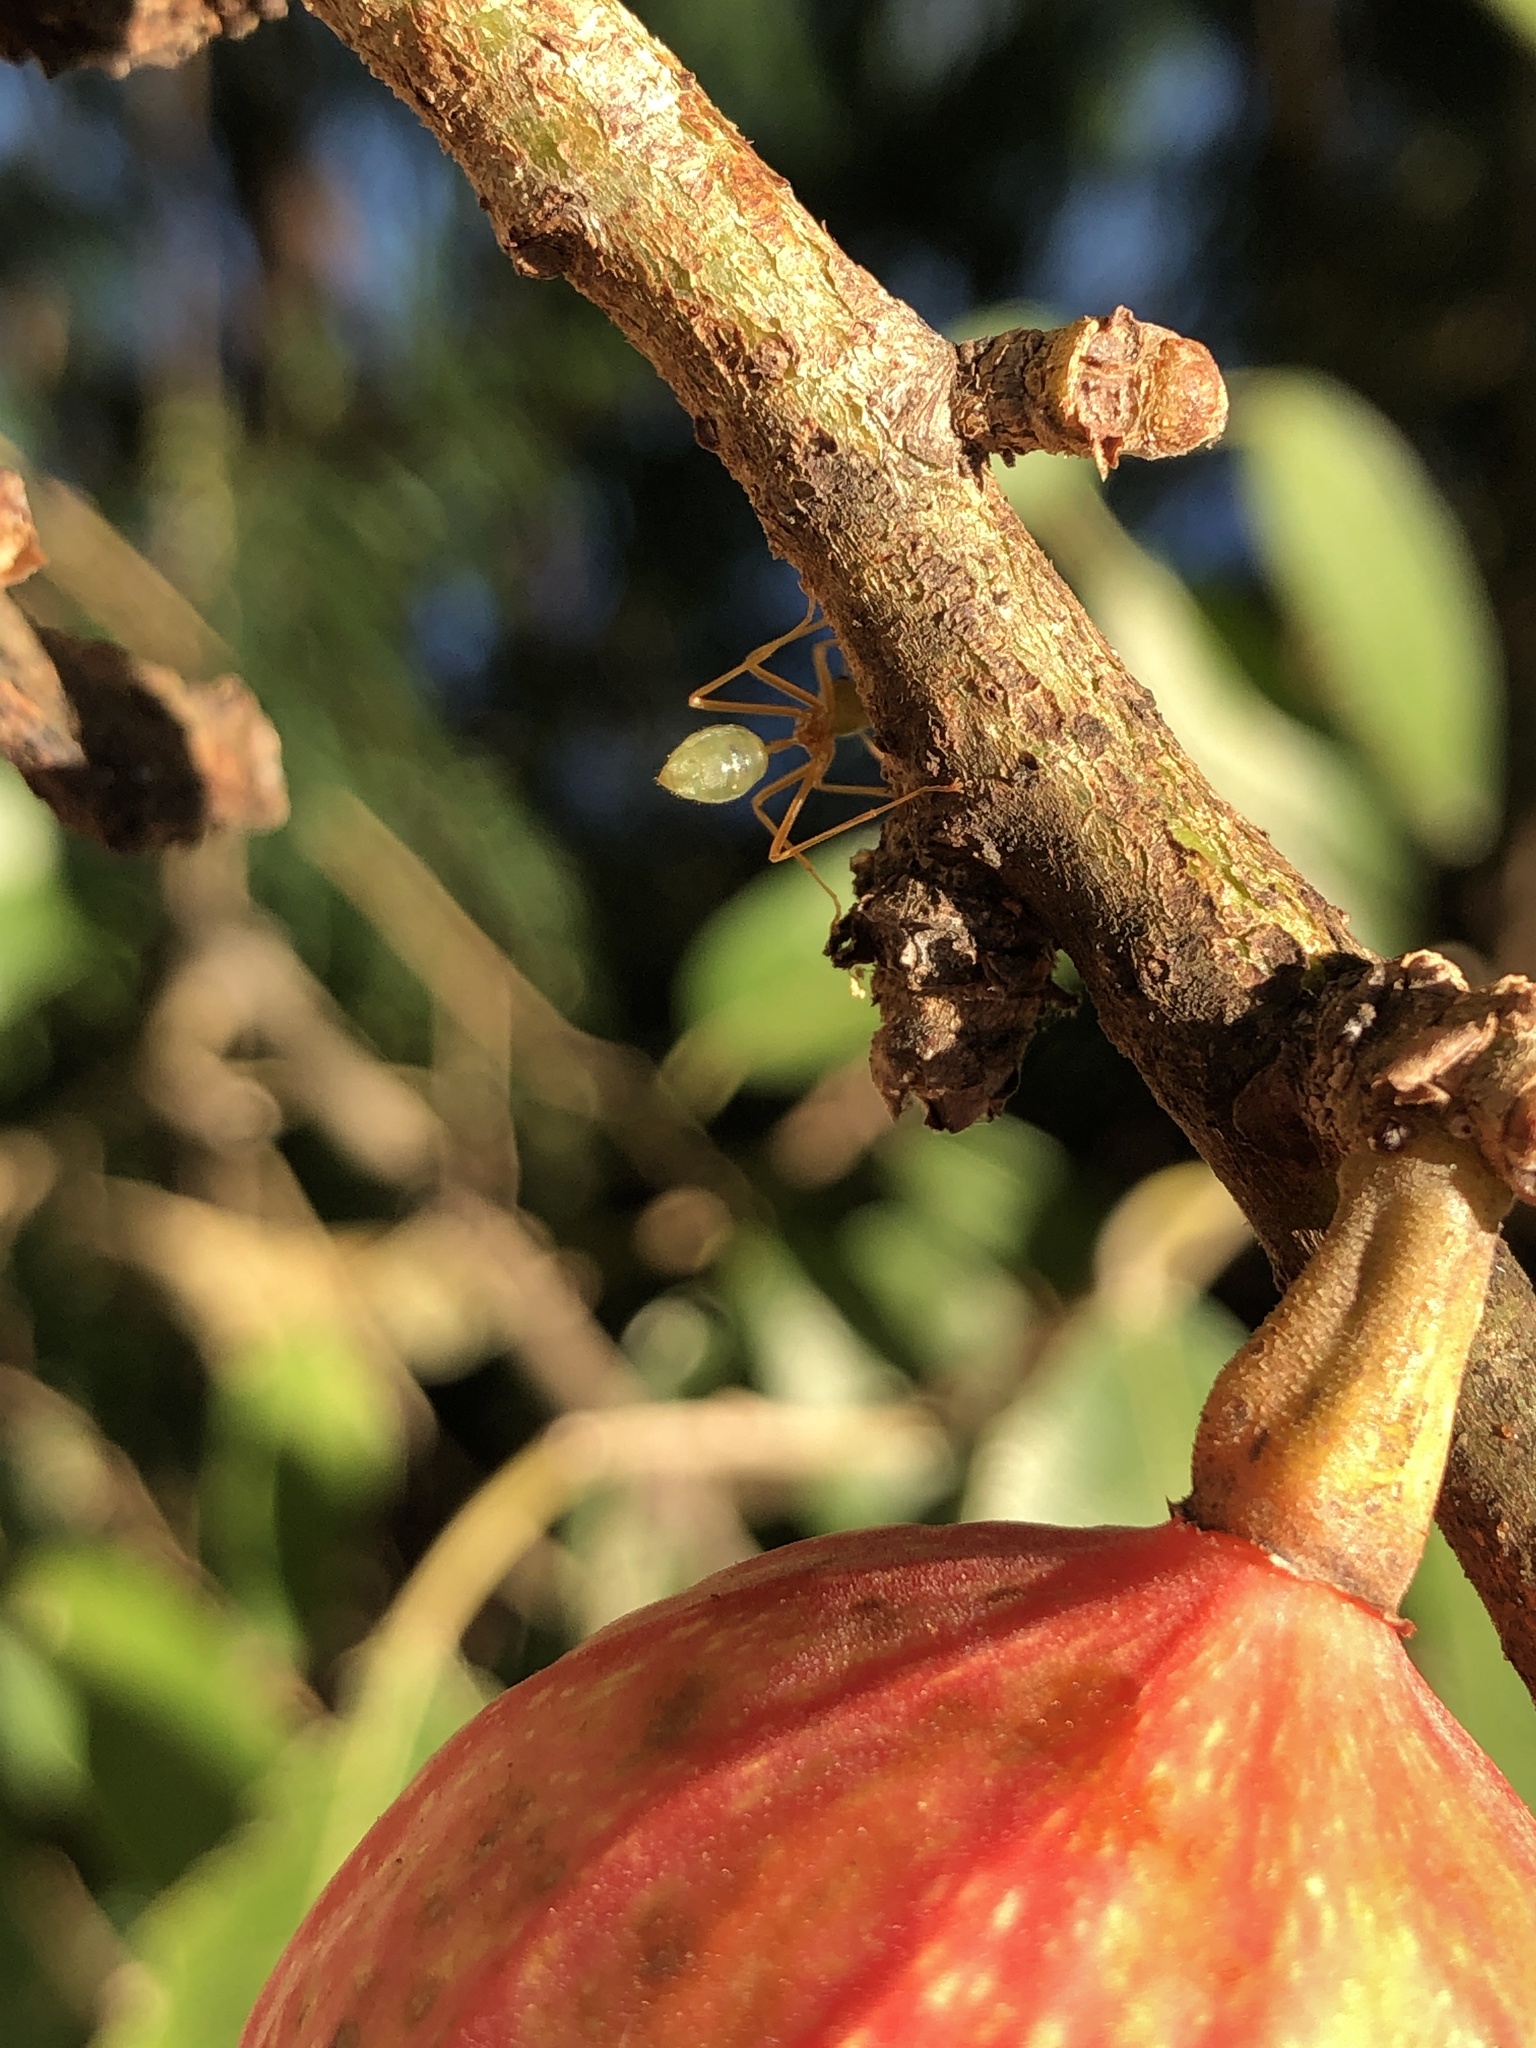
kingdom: Animalia
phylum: Arthropoda
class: Insecta
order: Hymenoptera
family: Formicidae
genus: Oecophylla
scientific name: Oecophylla smaragdina
